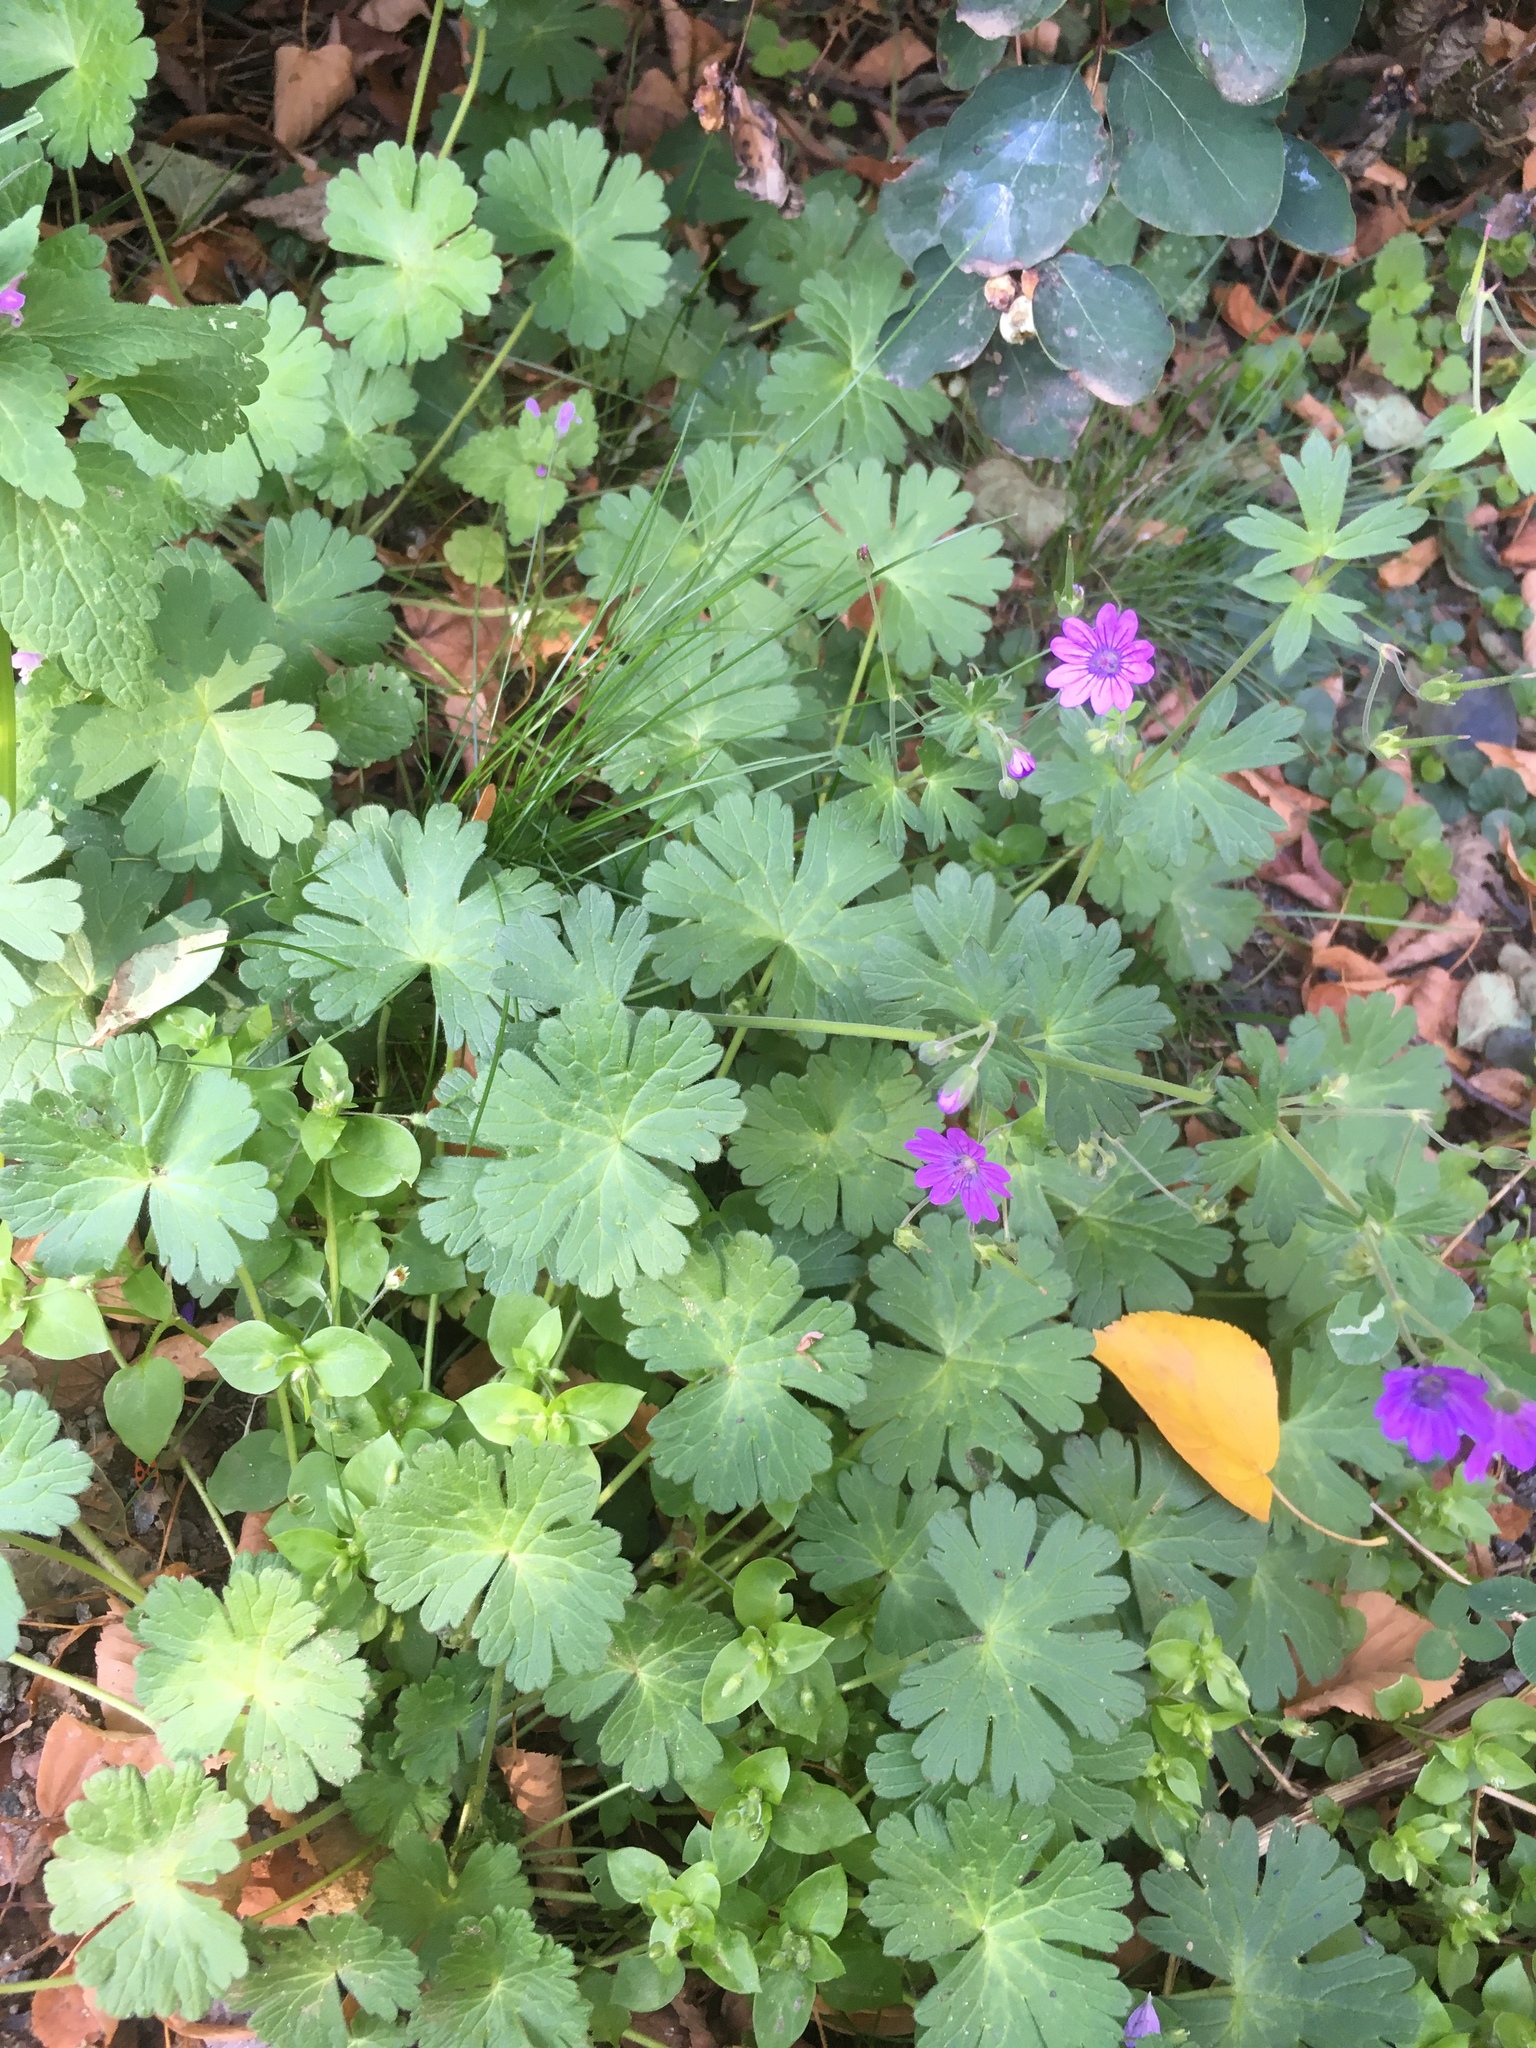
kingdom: Plantae
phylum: Tracheophyta
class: Magnoliopsida
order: Geraniales
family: Geraniaceae
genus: Geranium
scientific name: Geranium pyrenaicum
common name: Hedgerow crane's-bill
